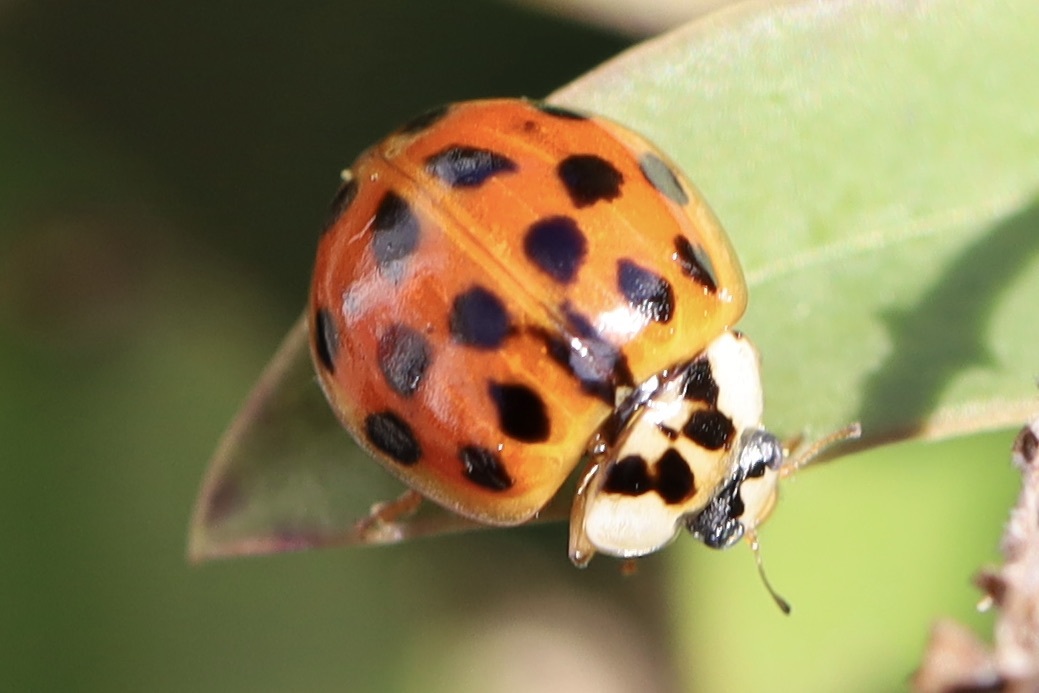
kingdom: Animalia
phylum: Arthropoda
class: Insecta
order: Coleoptera
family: Coccinellidae
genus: Harmonia
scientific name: Harmonia axyridis
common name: Harlequin ladybird
